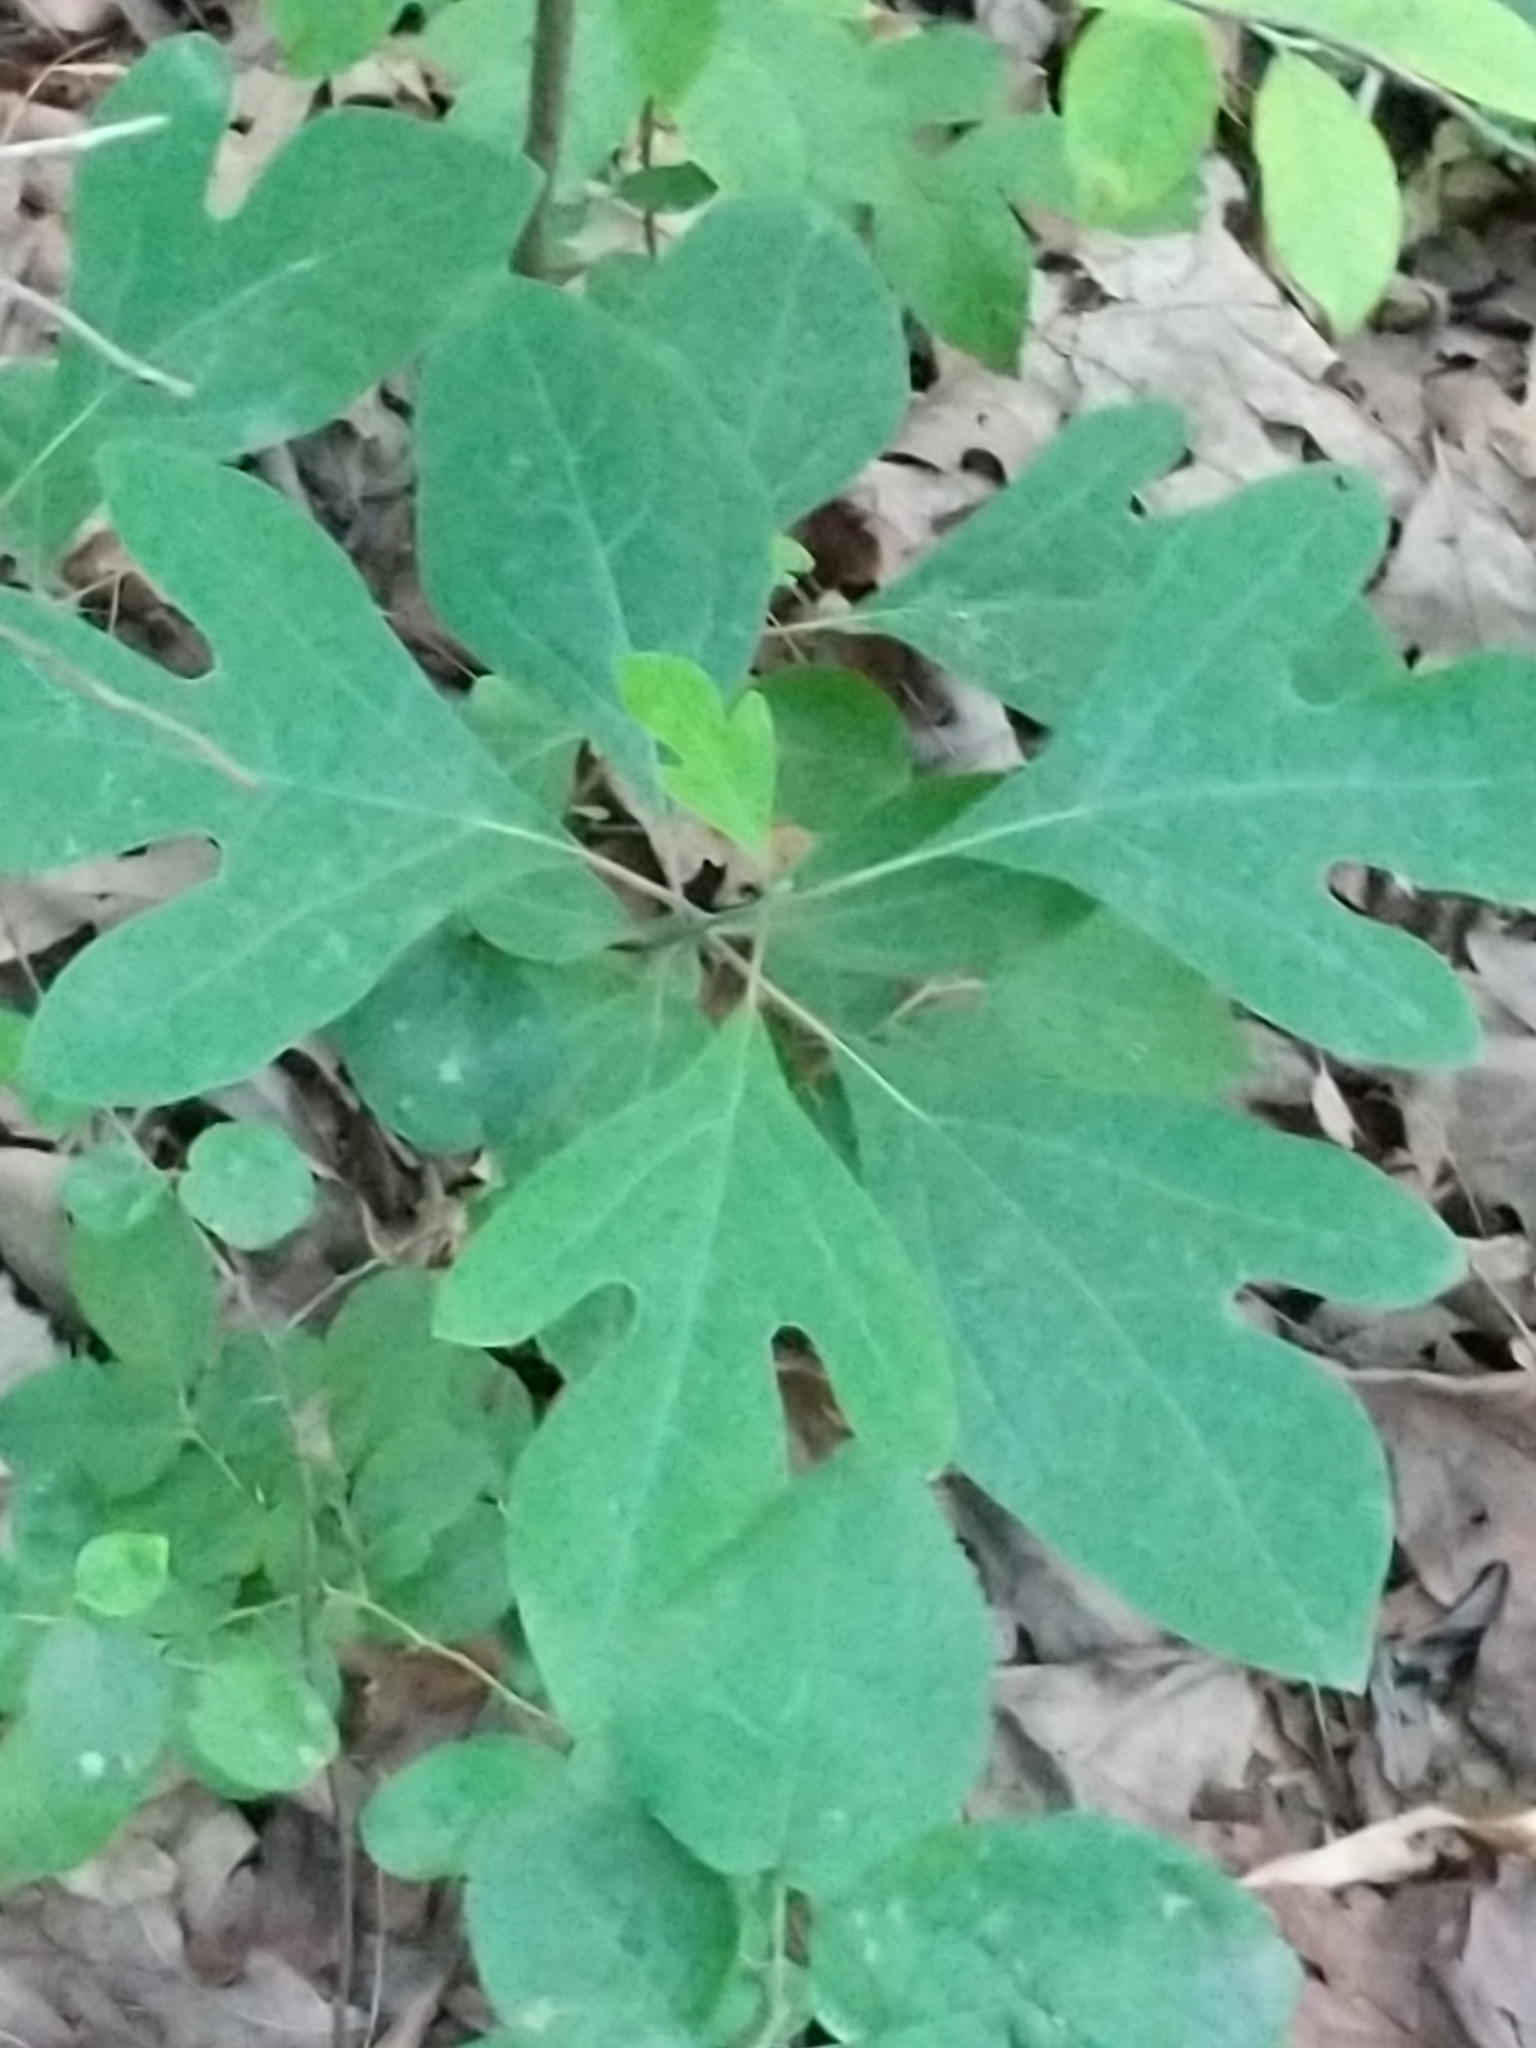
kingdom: Plantae
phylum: Tracheophyta
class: Magnoliopsida
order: Laurales
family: Lauraceae
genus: Sassafras
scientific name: Sassafras albidum
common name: Sassafras
